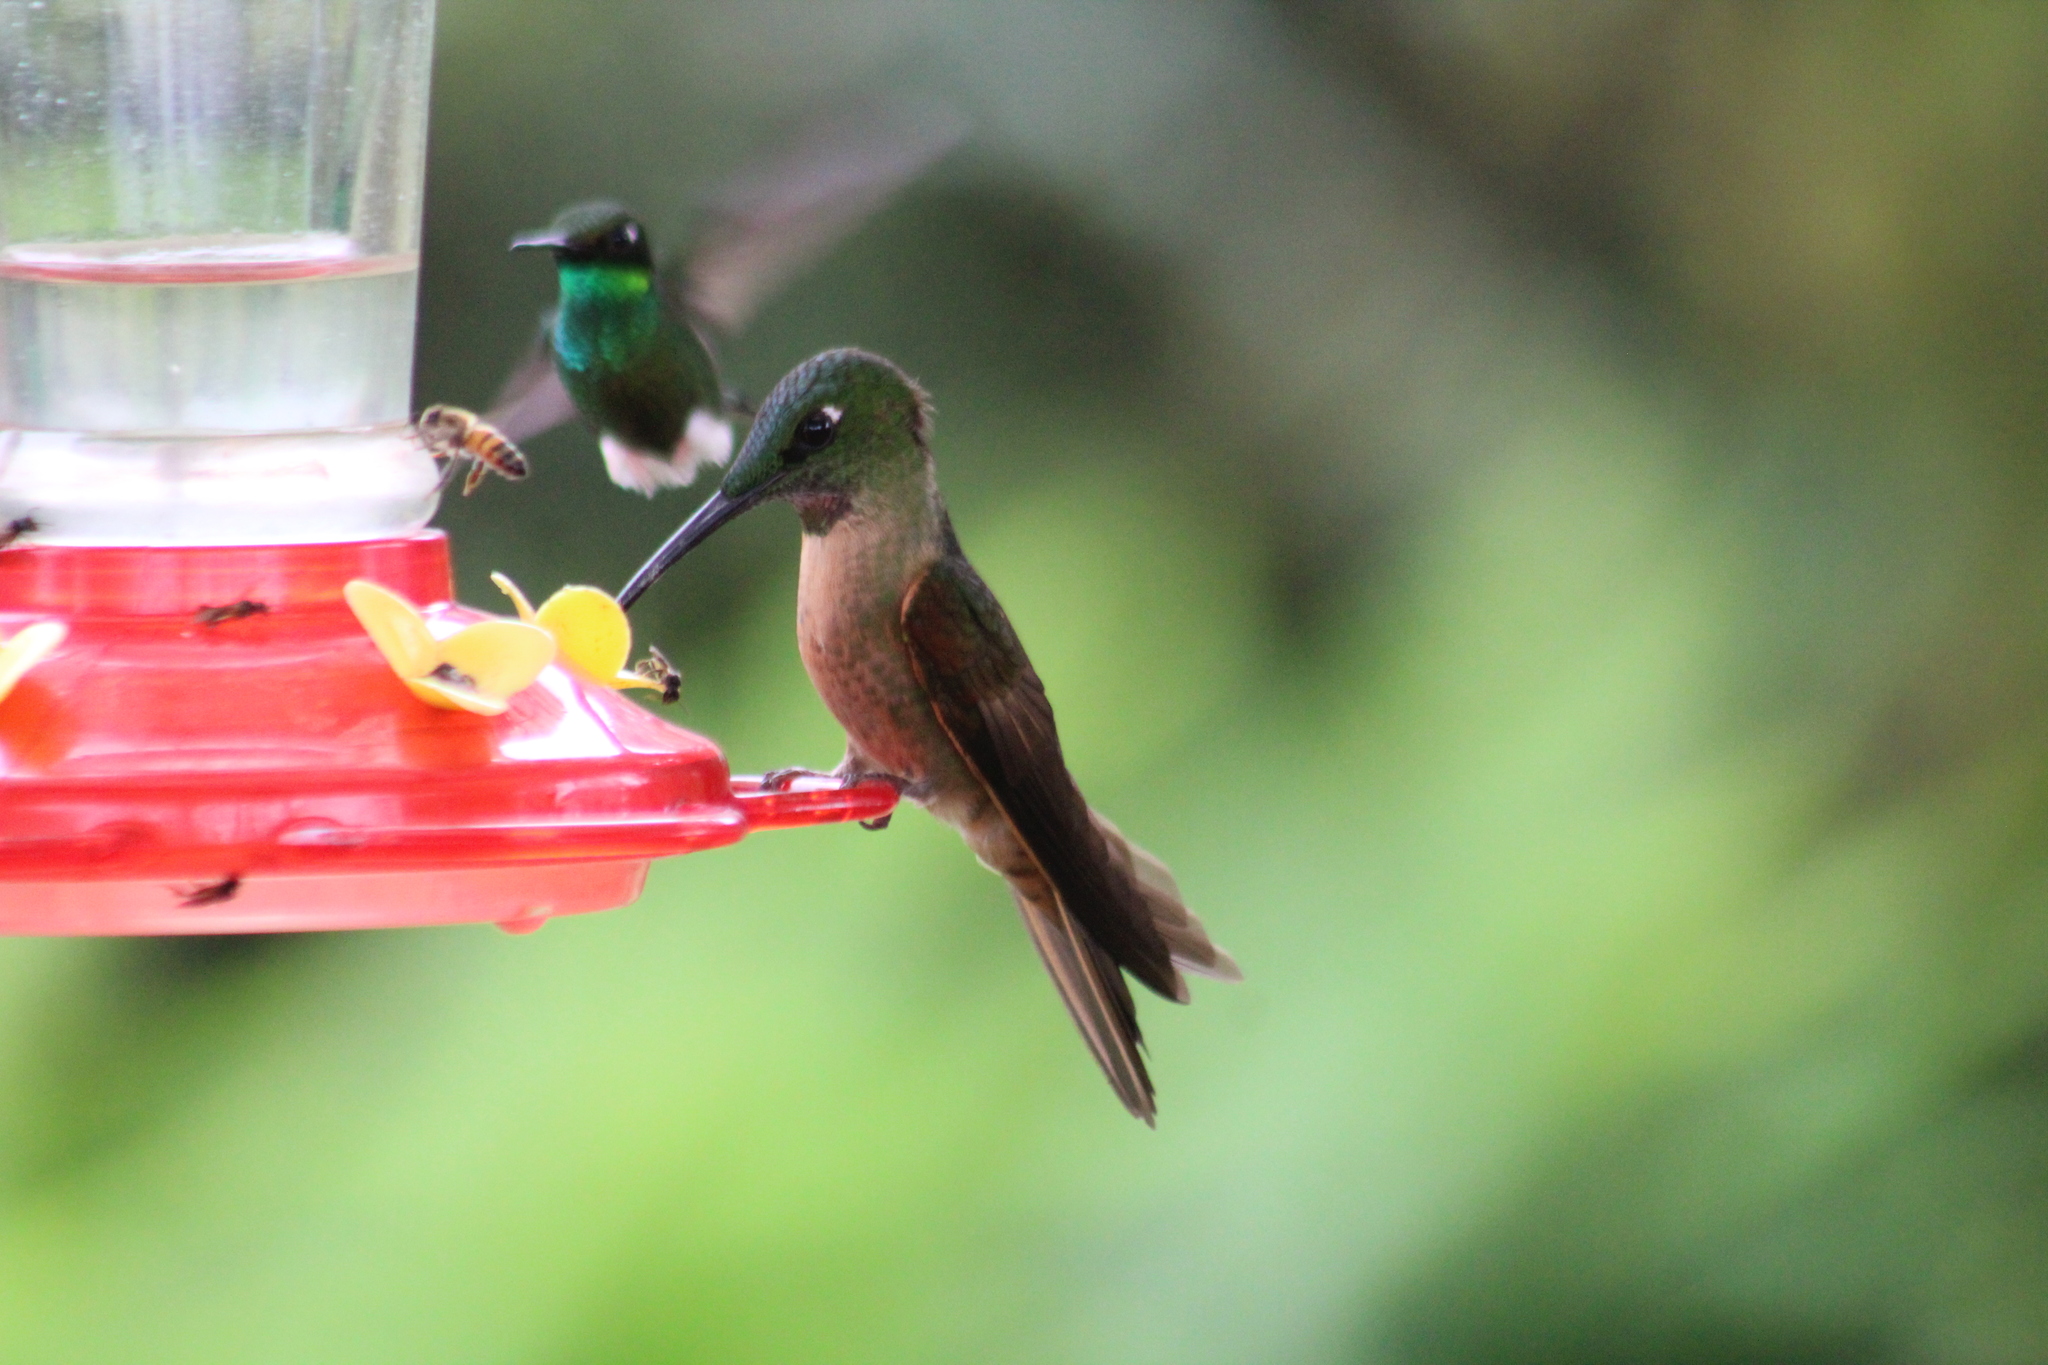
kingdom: Animalia
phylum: Chordata
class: Aves
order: Apodiformes
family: Trochilidae
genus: Heliodoxa
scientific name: Heliodoxa rubinoides
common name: Fawn-breasted brilliant
